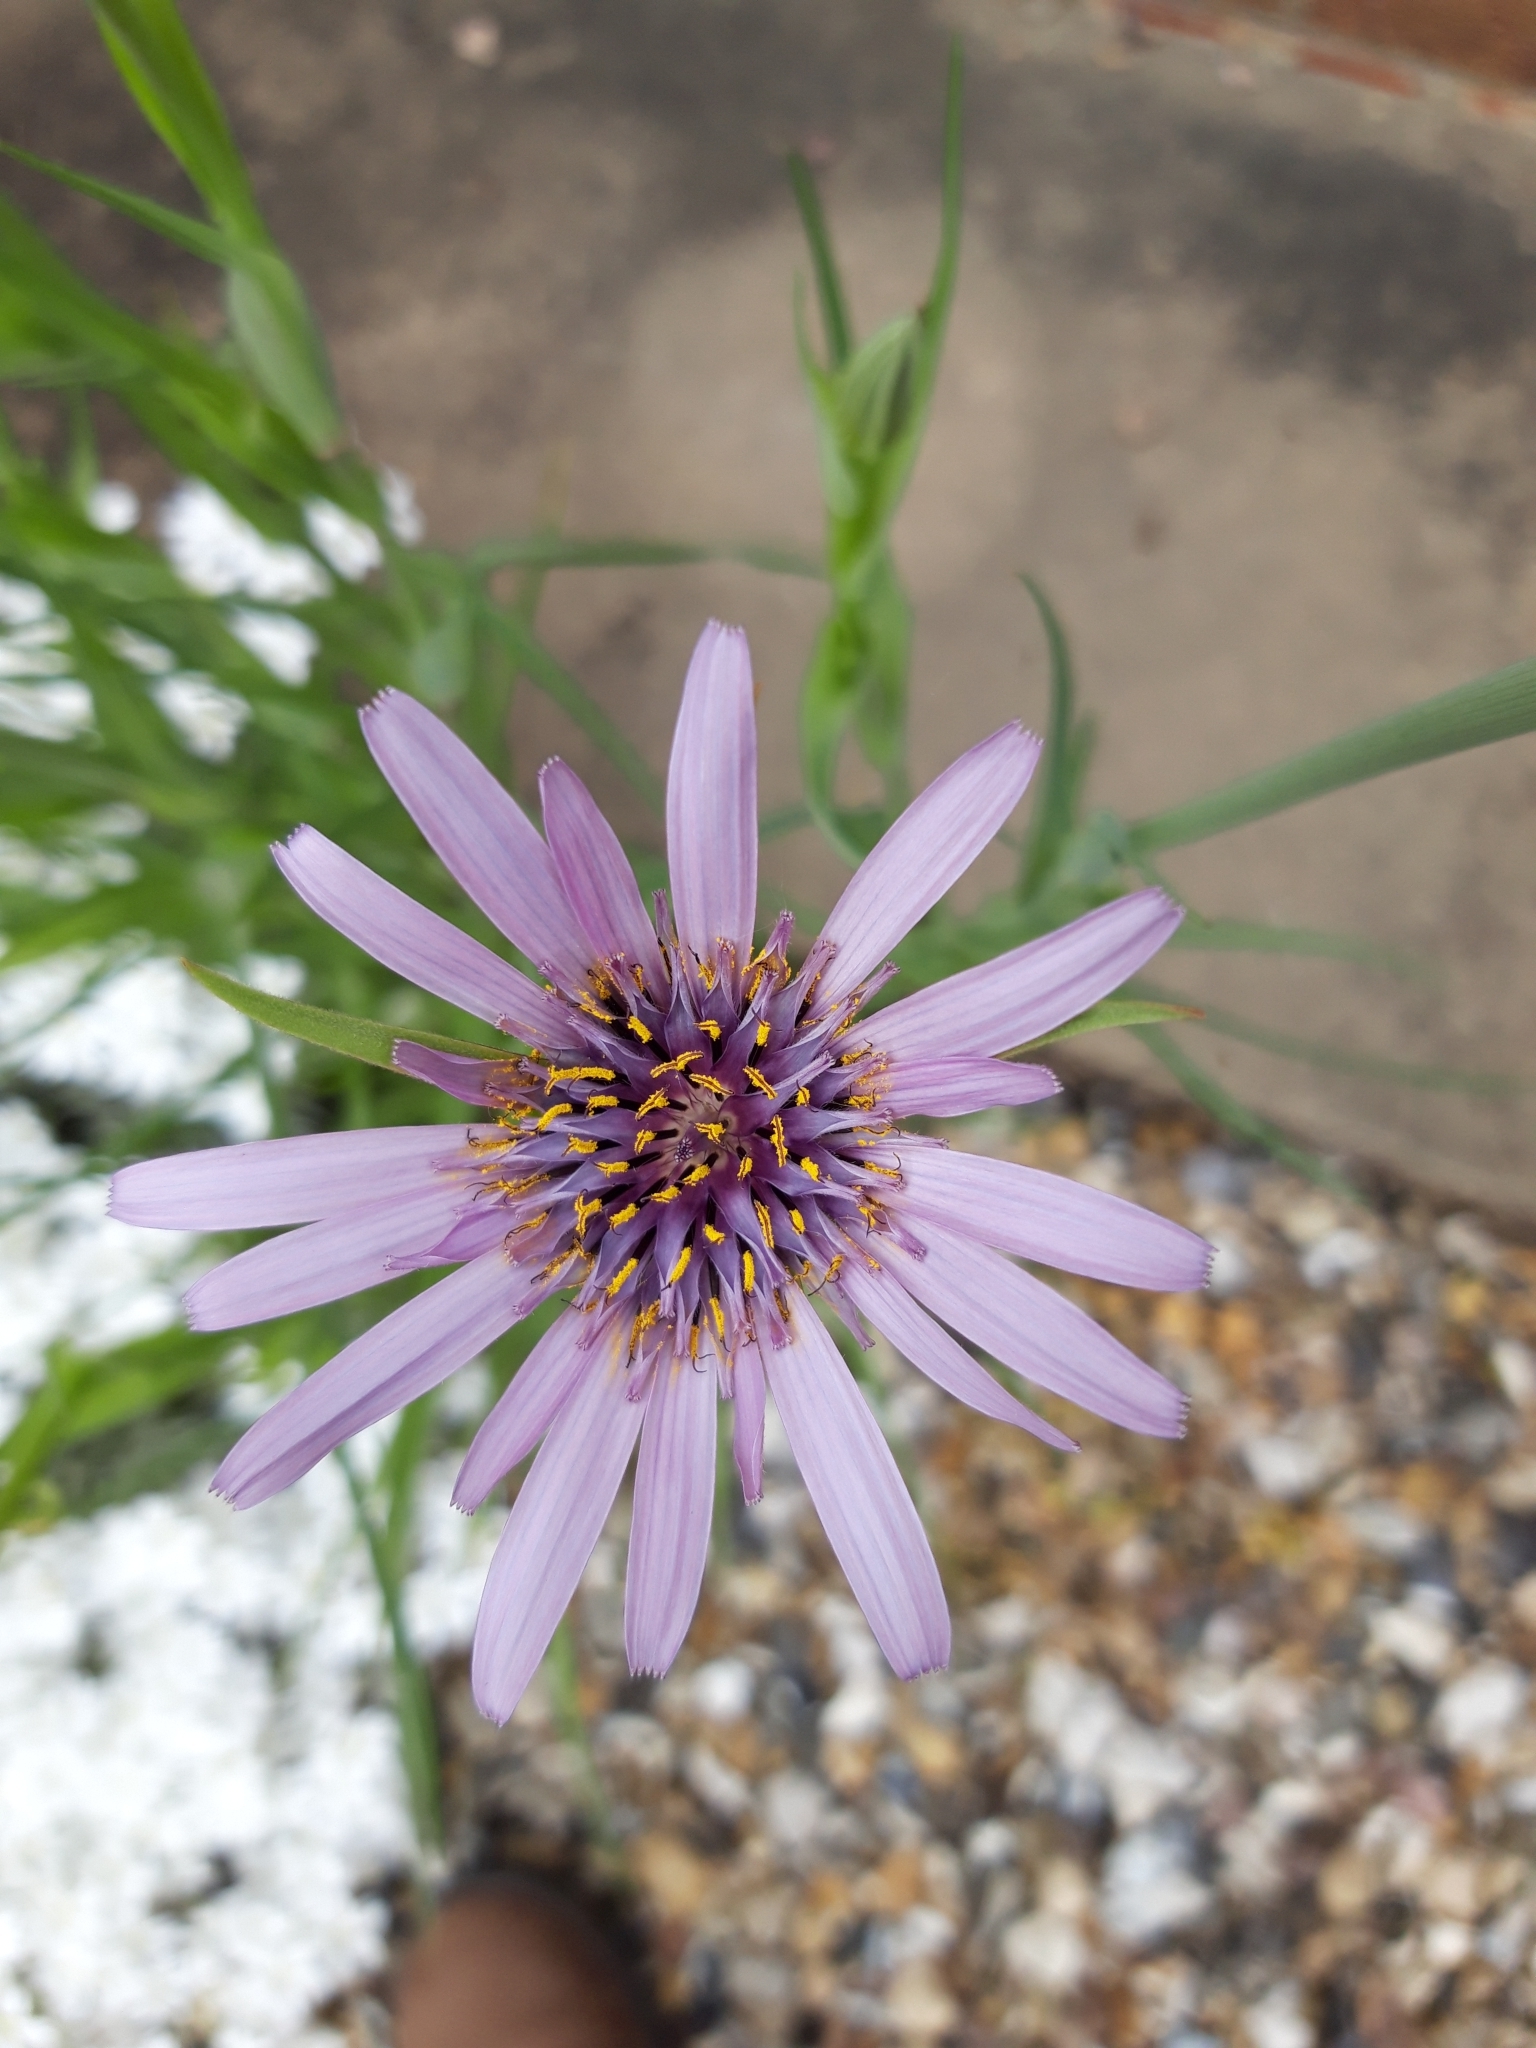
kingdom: Plantae
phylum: Tracheophyta
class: Magnoliopsida
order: Asterales
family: Asteraceae
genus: Tragopogon
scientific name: Tragopogon porrifolius
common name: Salsify
